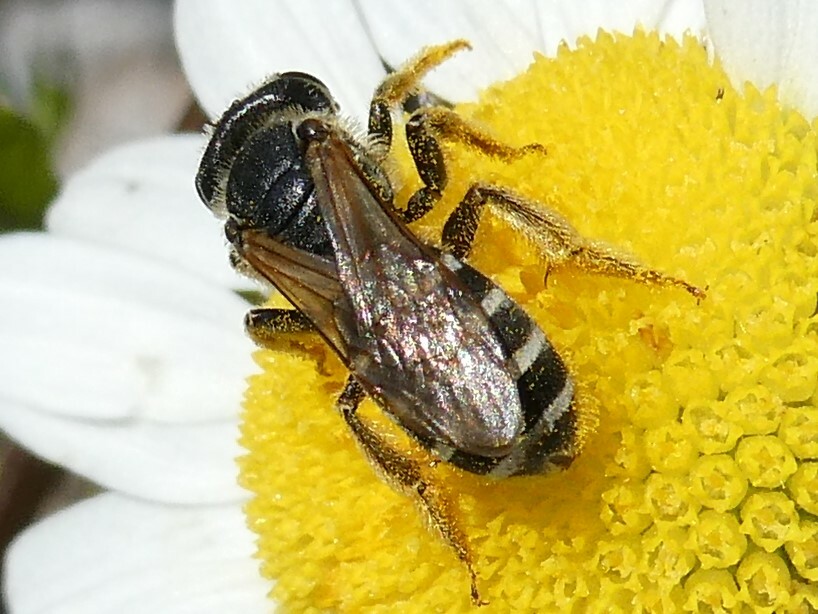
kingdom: Animalia
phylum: Arthropoda
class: Insecta
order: Hymenoptera
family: Halictidae
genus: Halictus
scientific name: Halictus ligatus
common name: Ligated furrow bee
